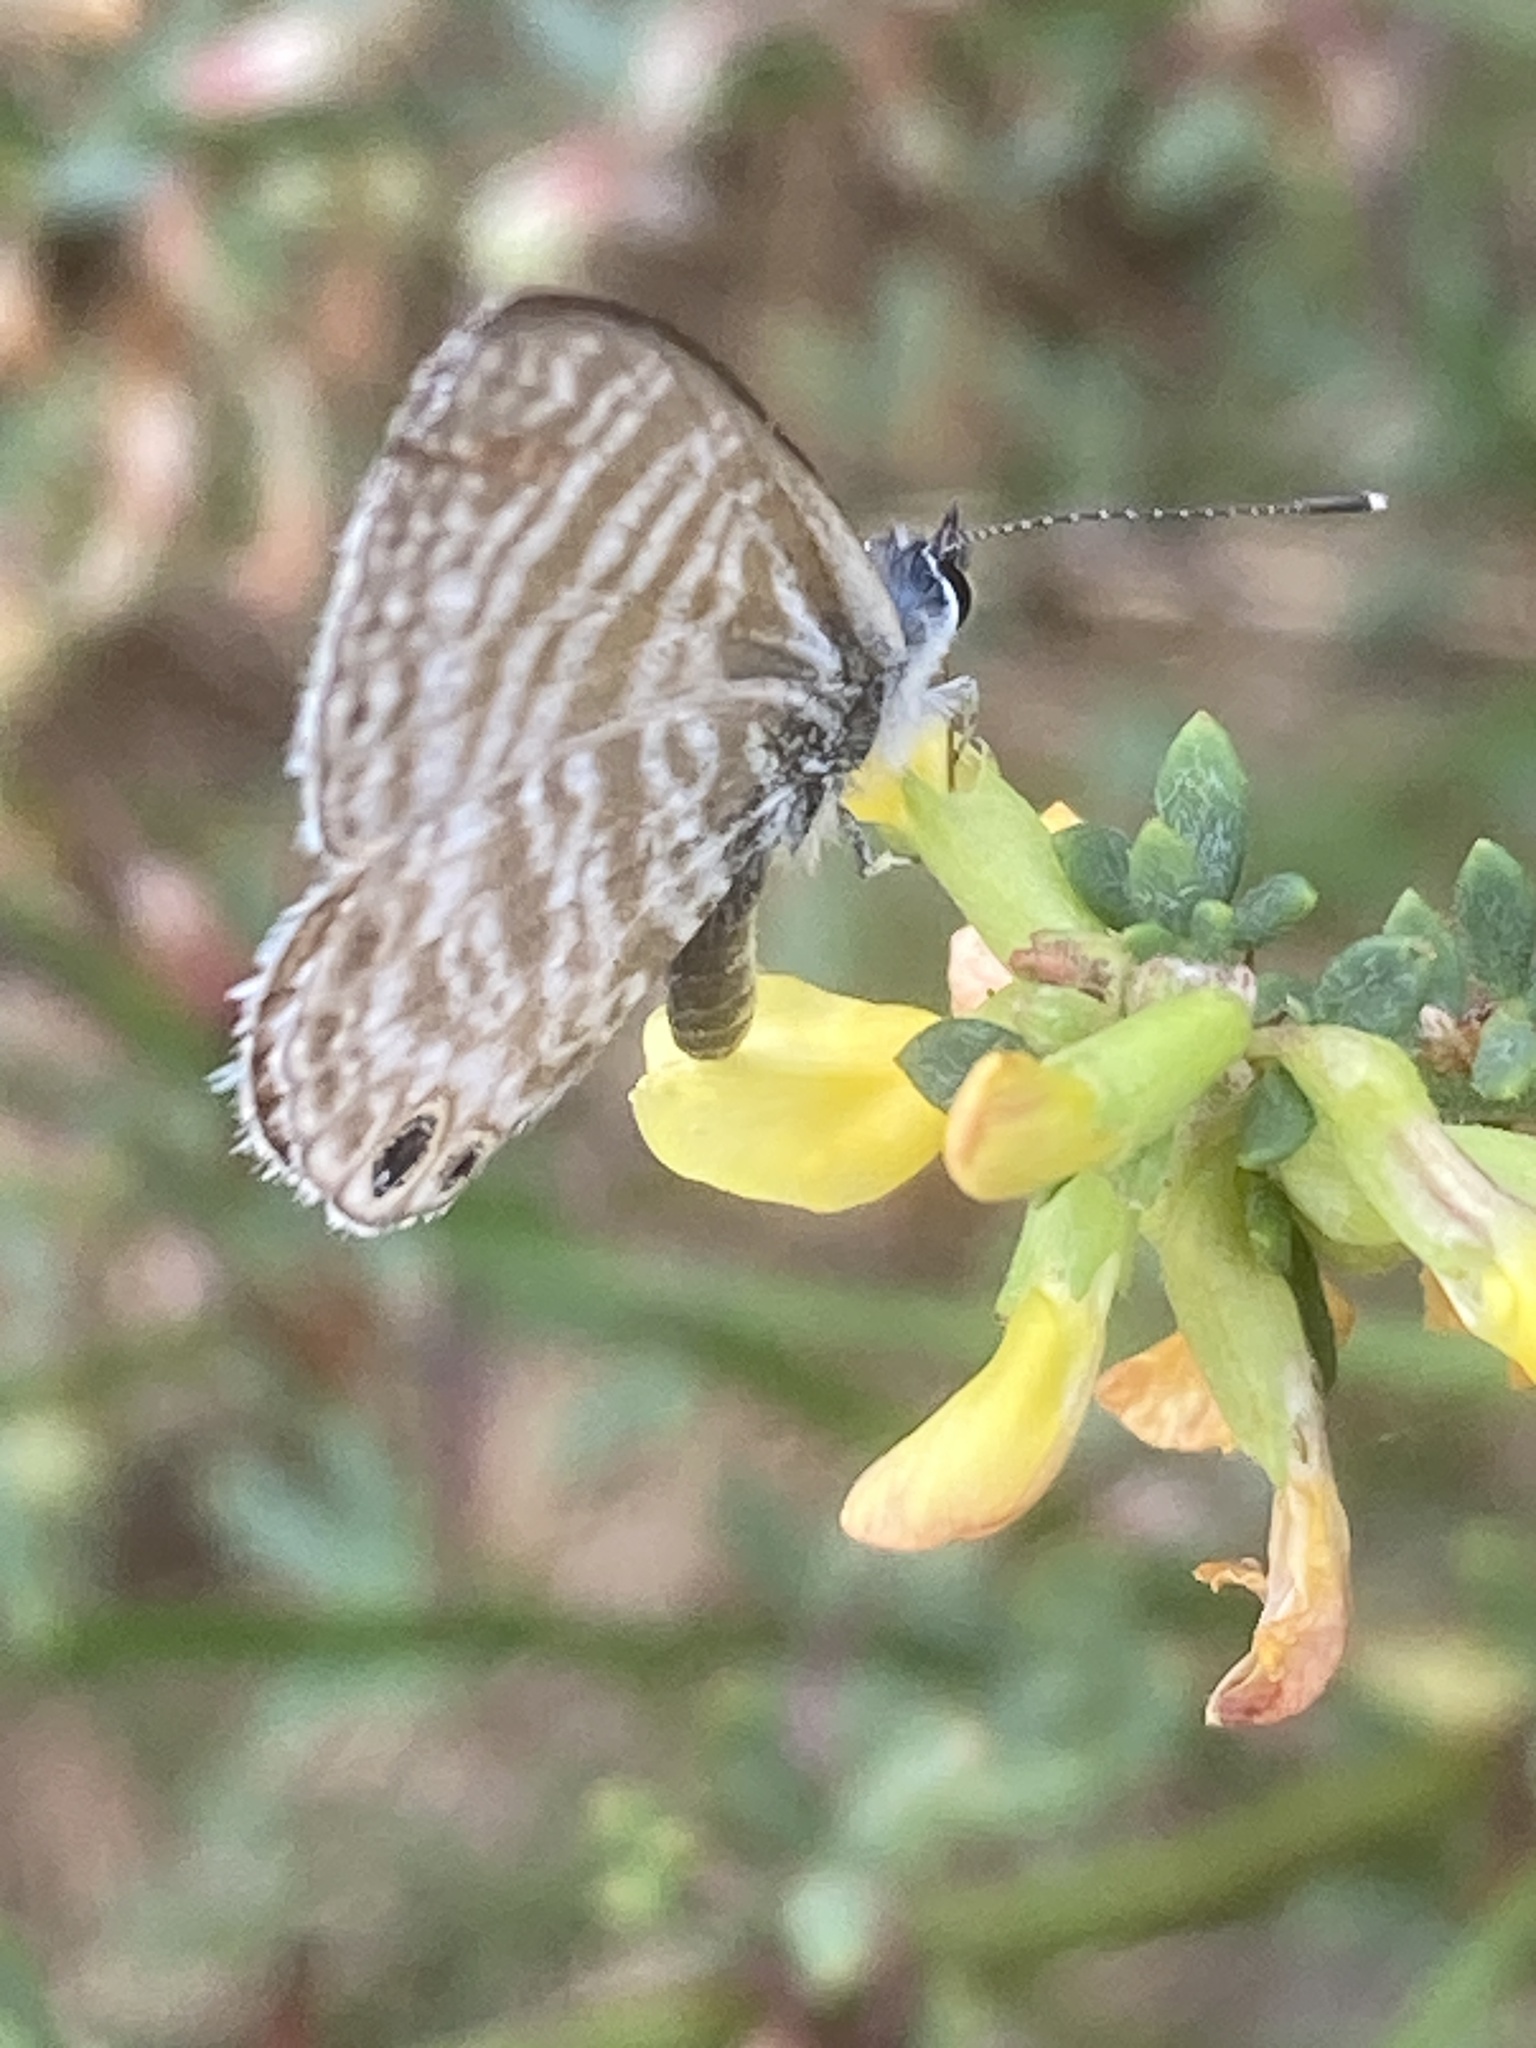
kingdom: Animalia
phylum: Arthropoda
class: Insecta
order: Lepidoptera
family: Lycaenidae
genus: Leptotes
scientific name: Leptotes marina
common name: Marine blue
